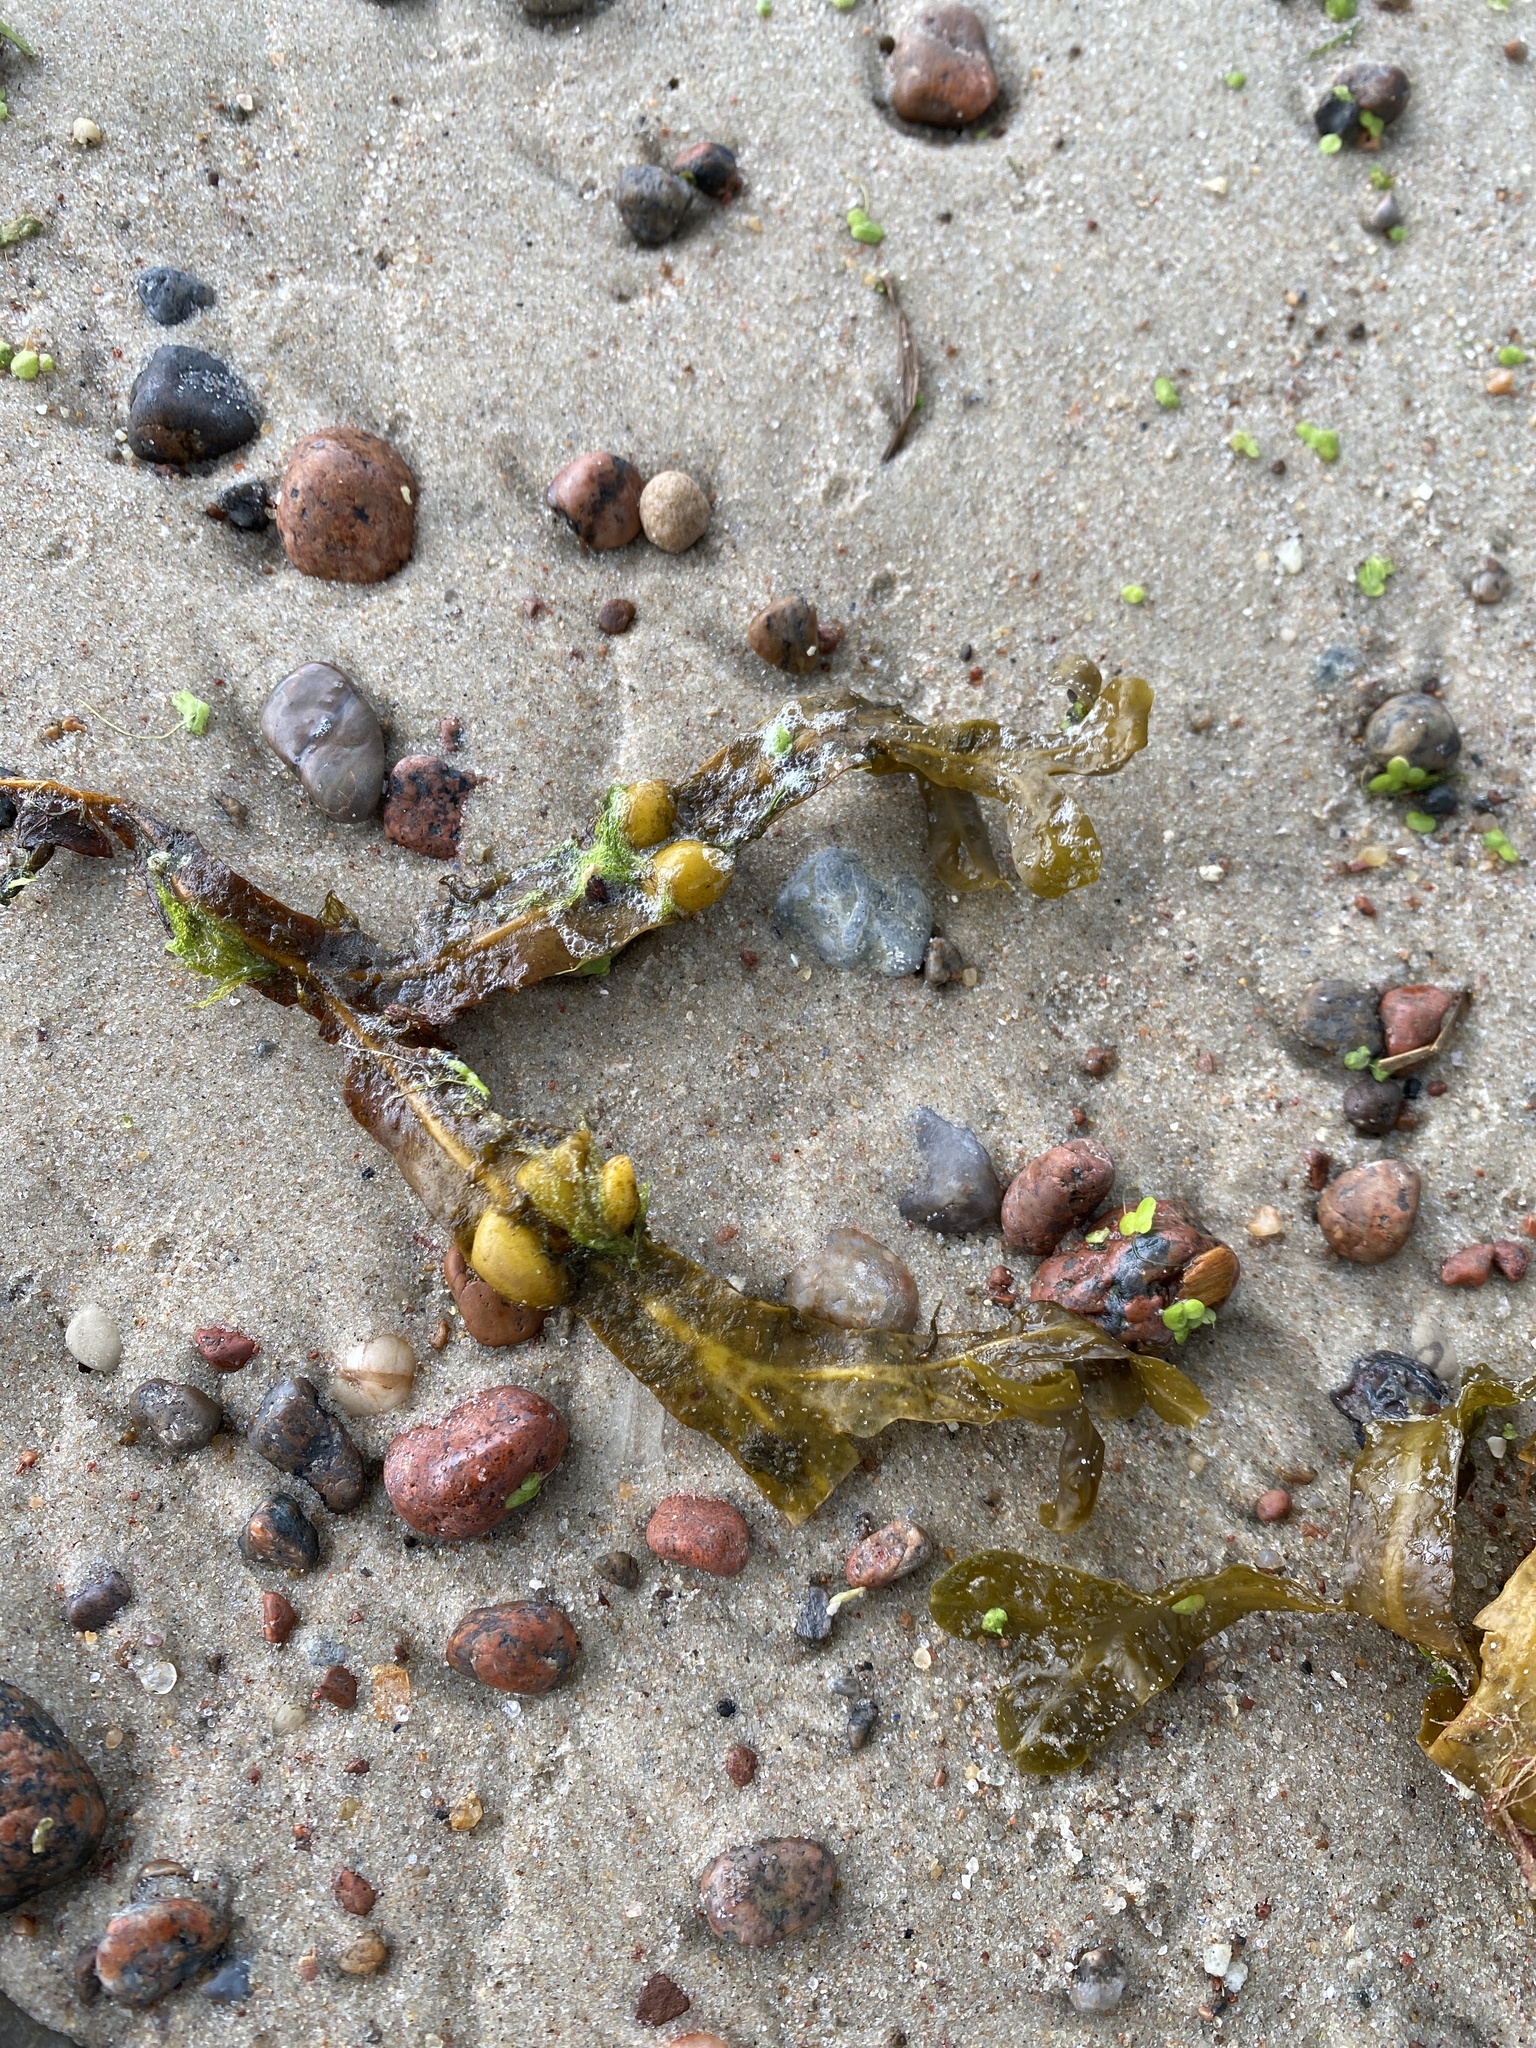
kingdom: Chromista
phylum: Ochrophyta
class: Phaeophyceae
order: Fucales
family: Fucaceae
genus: Fucus
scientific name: Fucus vesiculosus
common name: Bladder wrack
